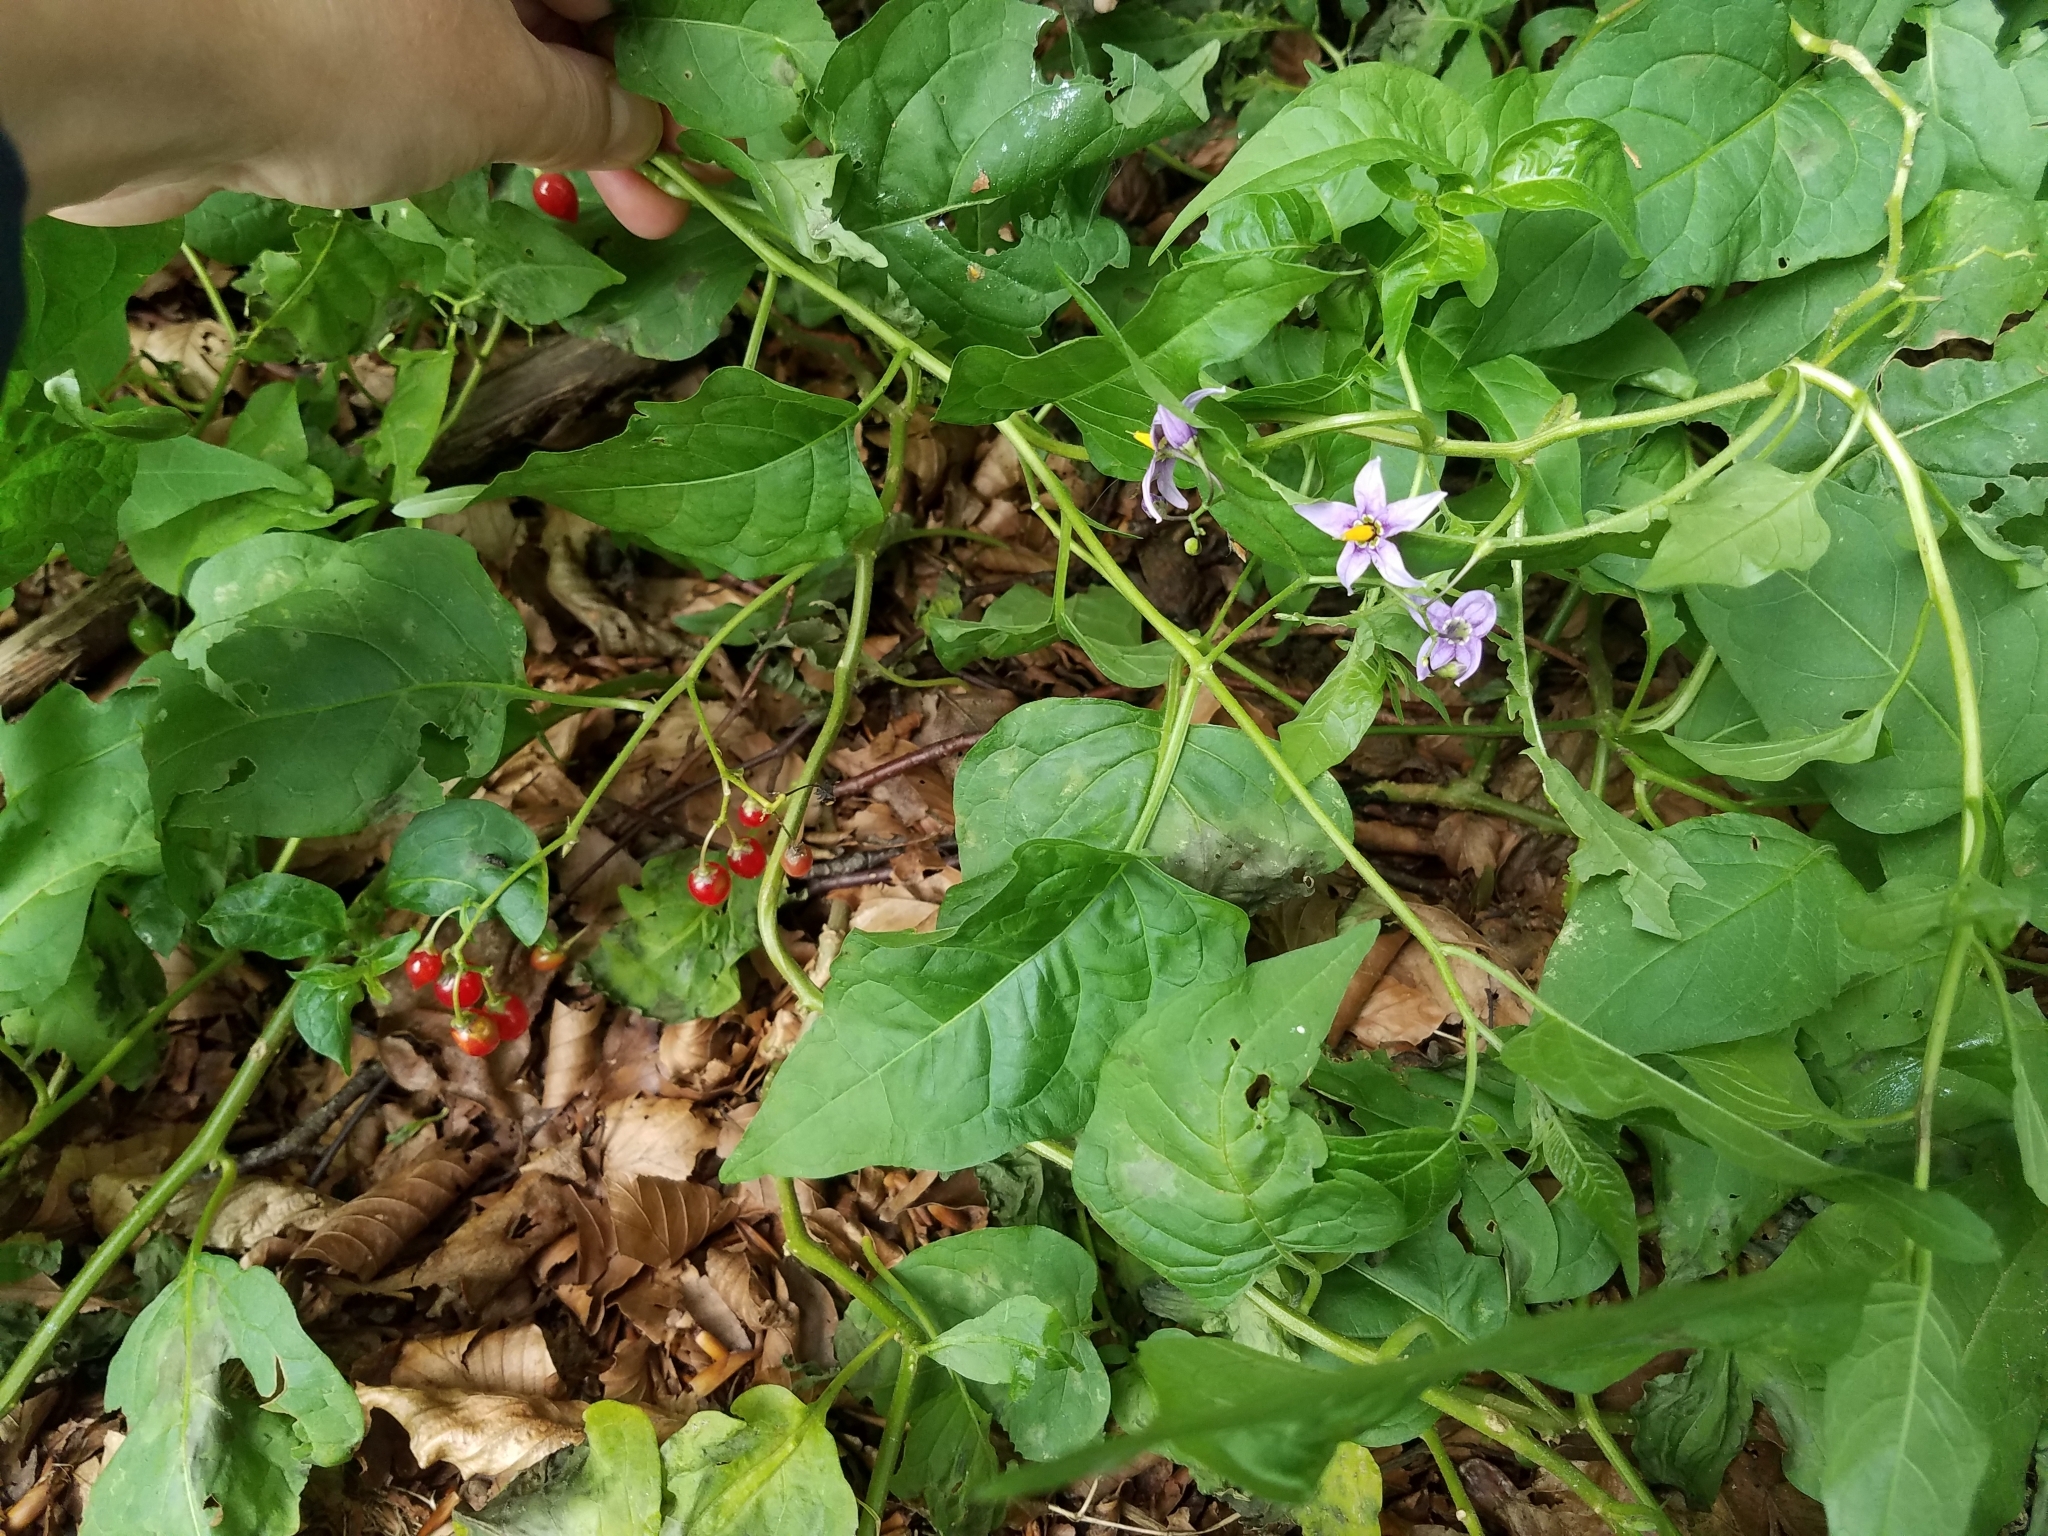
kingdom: Plantae
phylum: Tracheophyta
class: Magnoliopsida
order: Solanales
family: Solanaceae
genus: Solanum
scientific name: Solanum dulcamara
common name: Climbing nightshade
